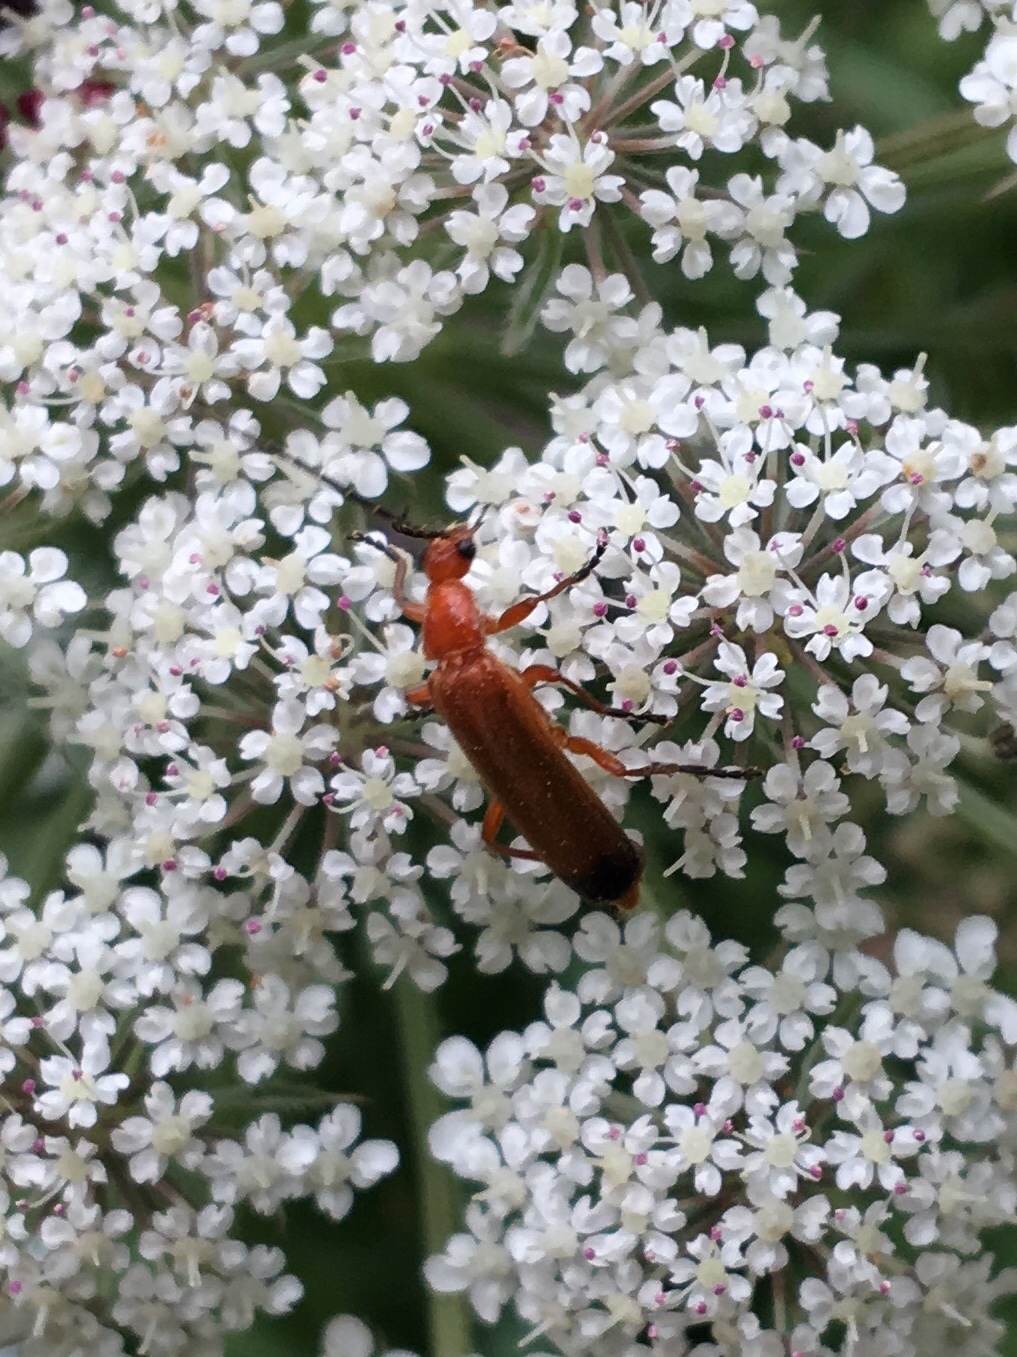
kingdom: Animalia
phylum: Arthropoda
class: Insecta
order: Coleoptera
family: Cantharidae
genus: Rhagonycha
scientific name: Rhagonycha fulva
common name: Common red soldier beetle
